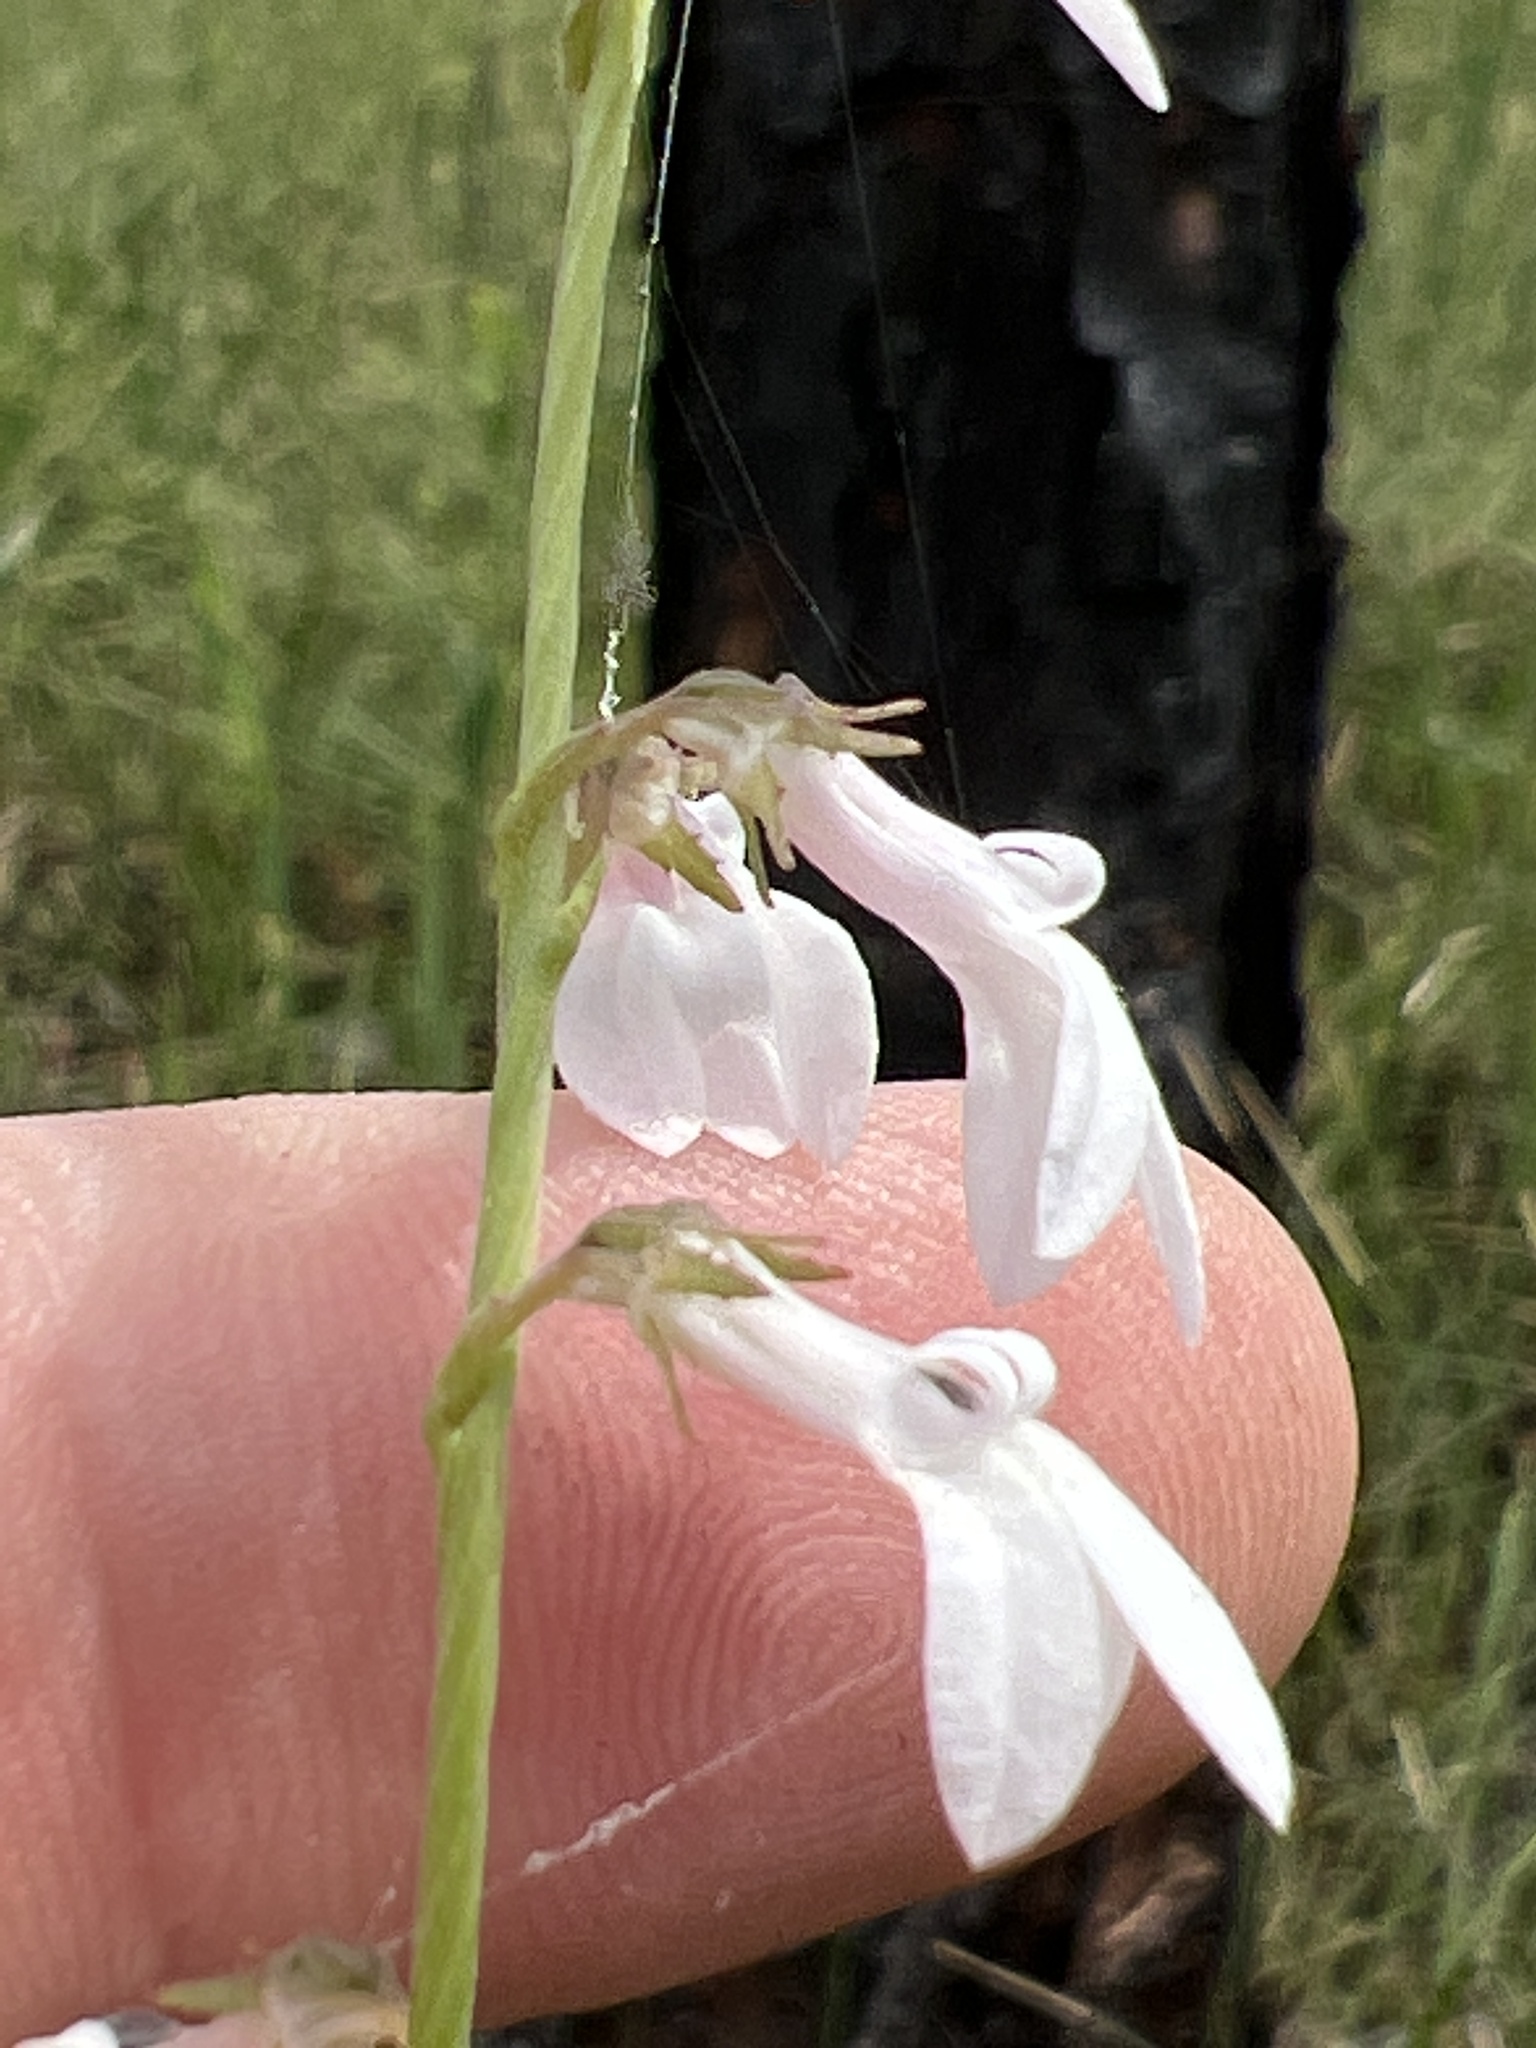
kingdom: Plantae
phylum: Tracheophyta
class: Magnoliopsida
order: Asterales
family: Campanulaceae
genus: Lobelia
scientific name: Lobelia floridana
